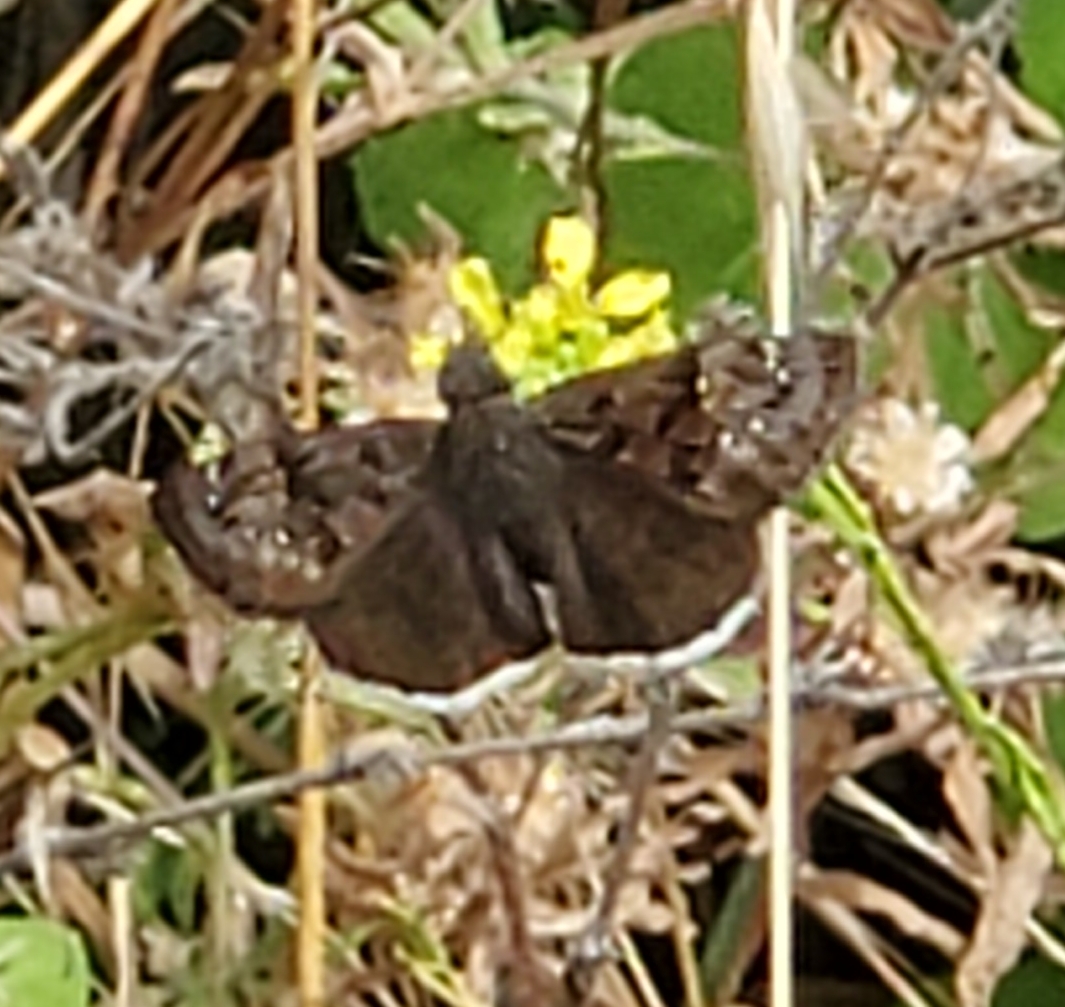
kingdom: Animalia
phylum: Arthropoda
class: Insecta
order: Lepidoptera
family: Hesperiidae
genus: Erynnis
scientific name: Erynnis tristis
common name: Mournful duskywing
